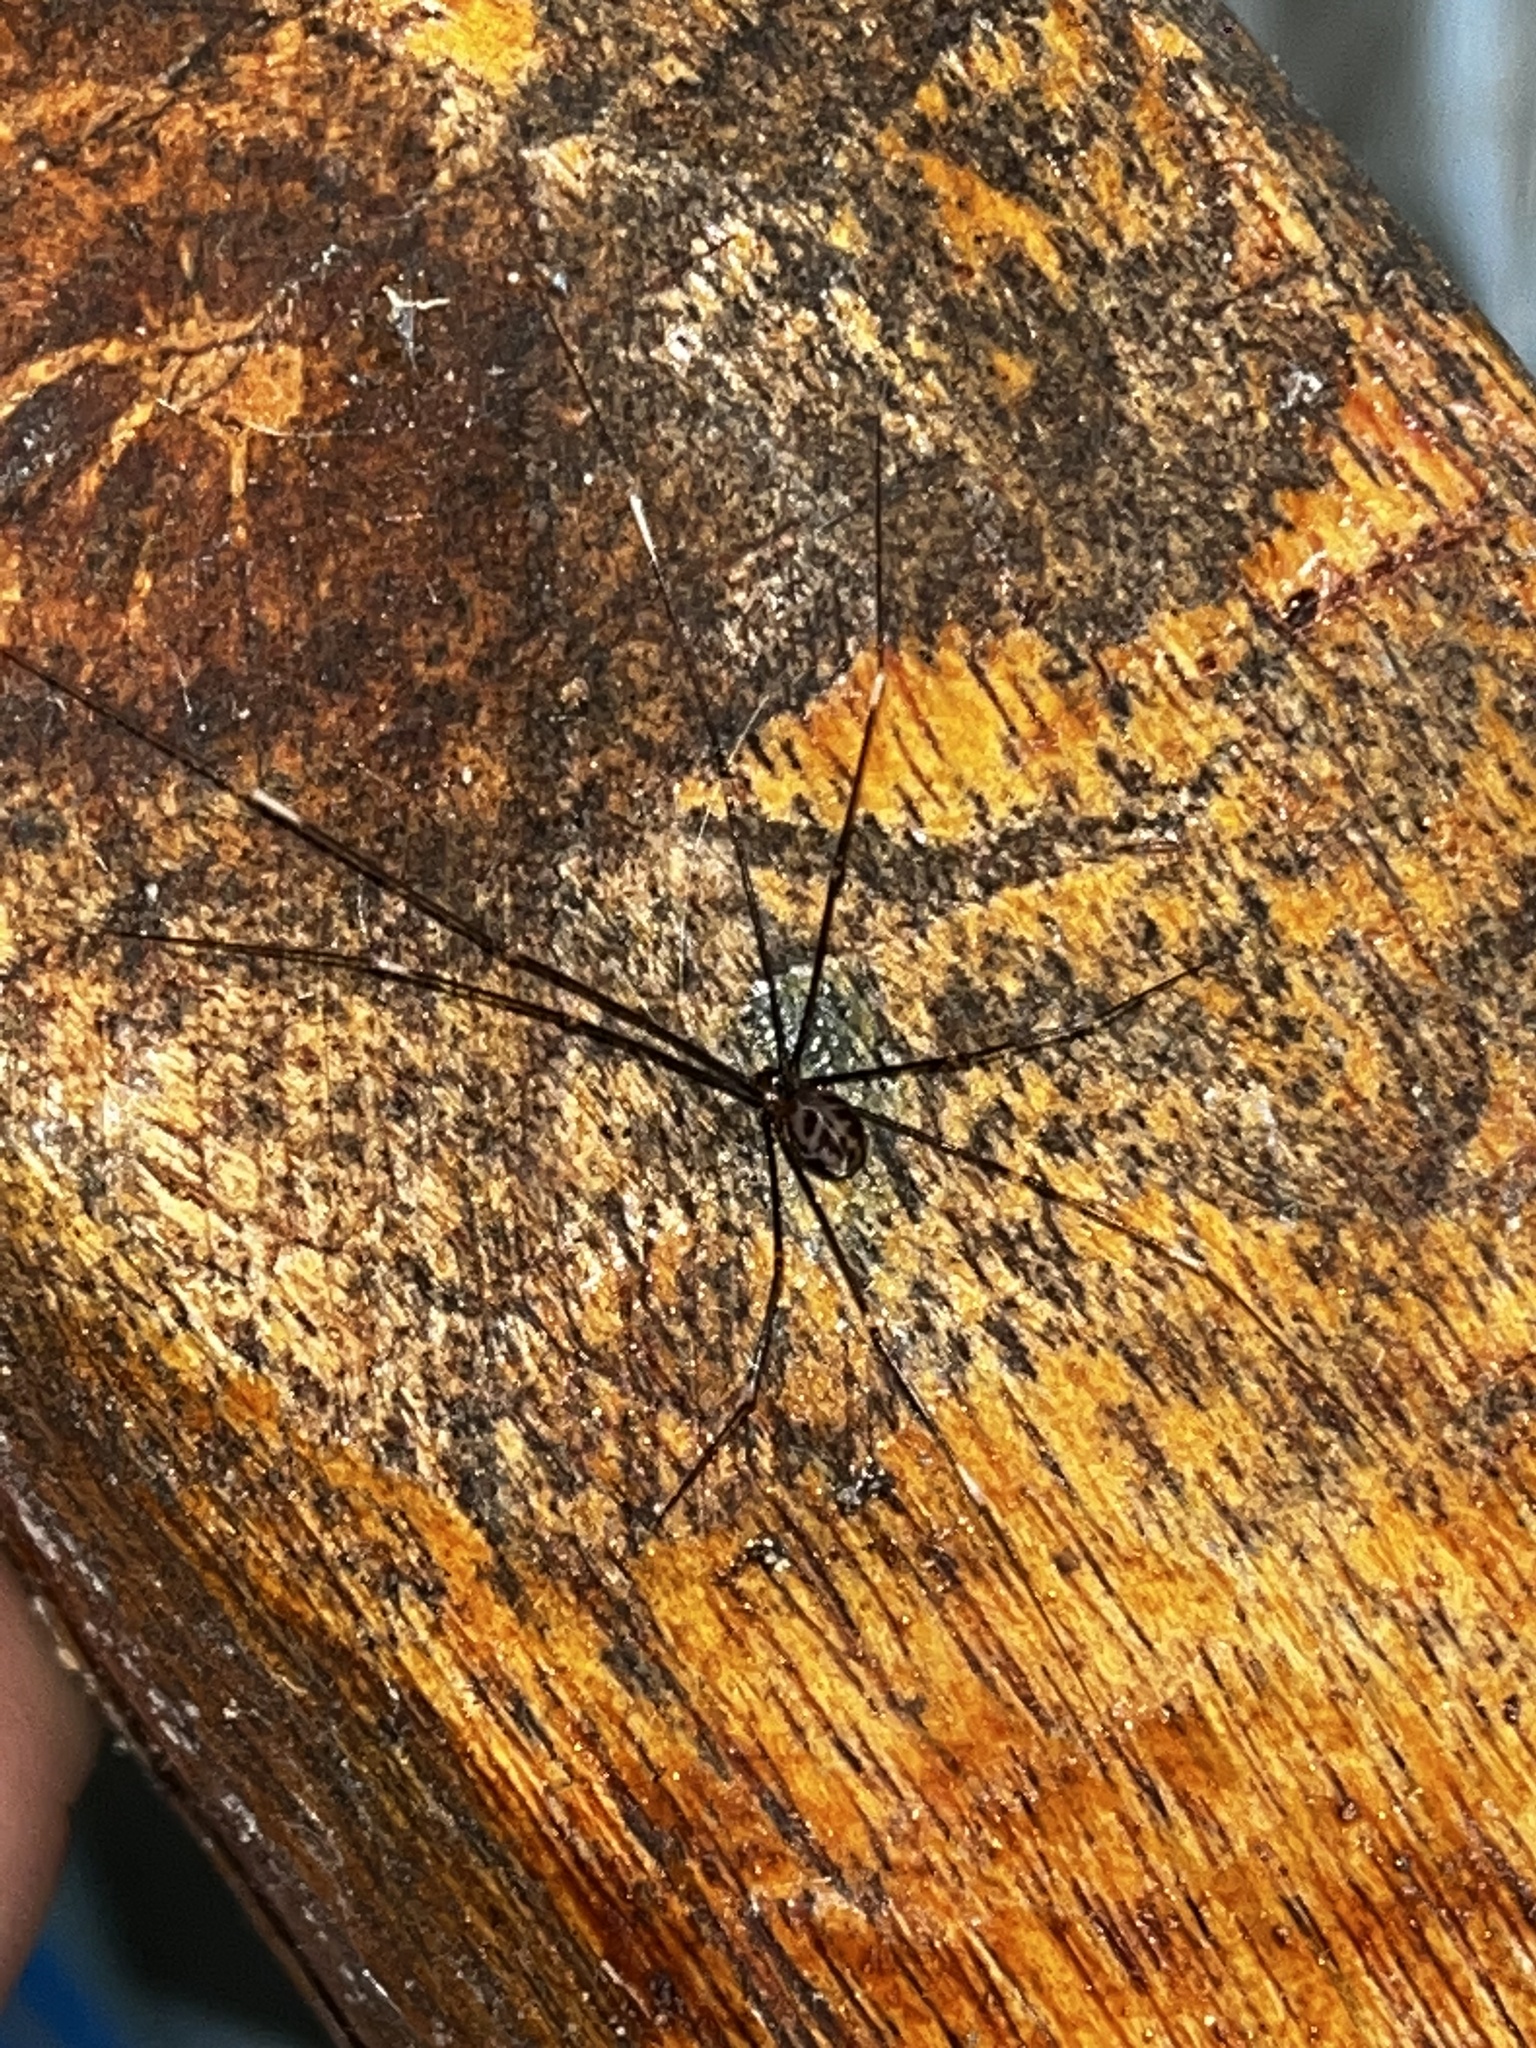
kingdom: Animalia
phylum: Arthropoda
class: Arachnida
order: Araneae
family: Pholcidae
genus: Smeringopus
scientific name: Smeringopus pallidus
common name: Cellar spider
